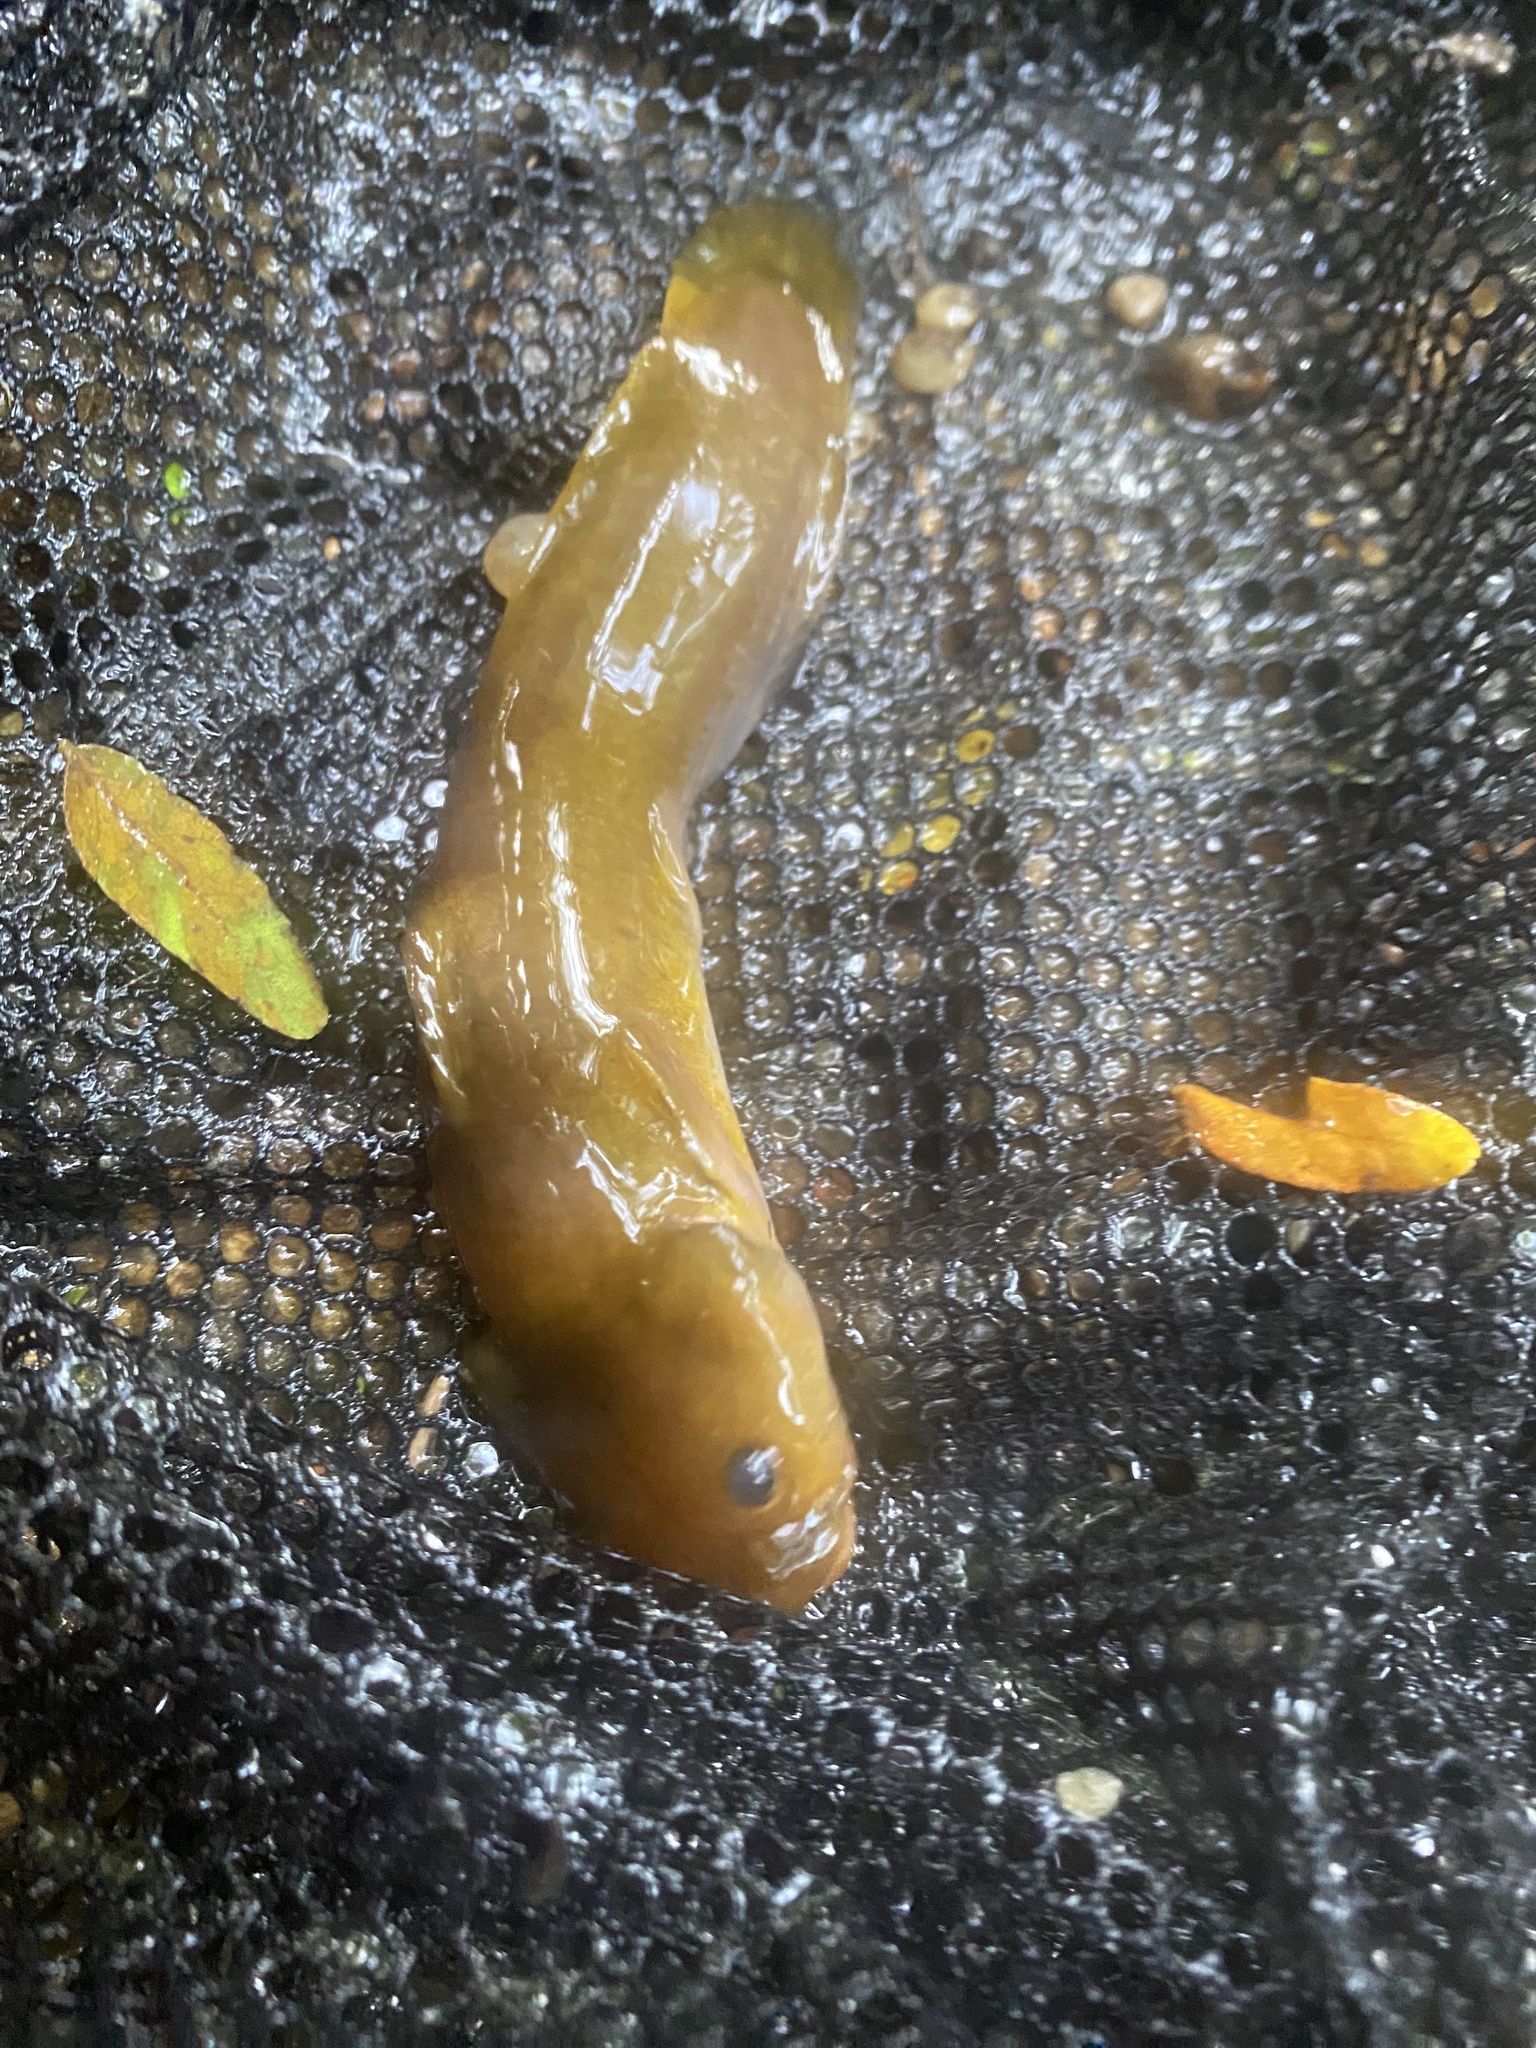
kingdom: Animalia
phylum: Chordata
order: Siluriformes
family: Ictaluridae
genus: Noturus
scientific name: Noturus exilis
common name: Slender madtom
